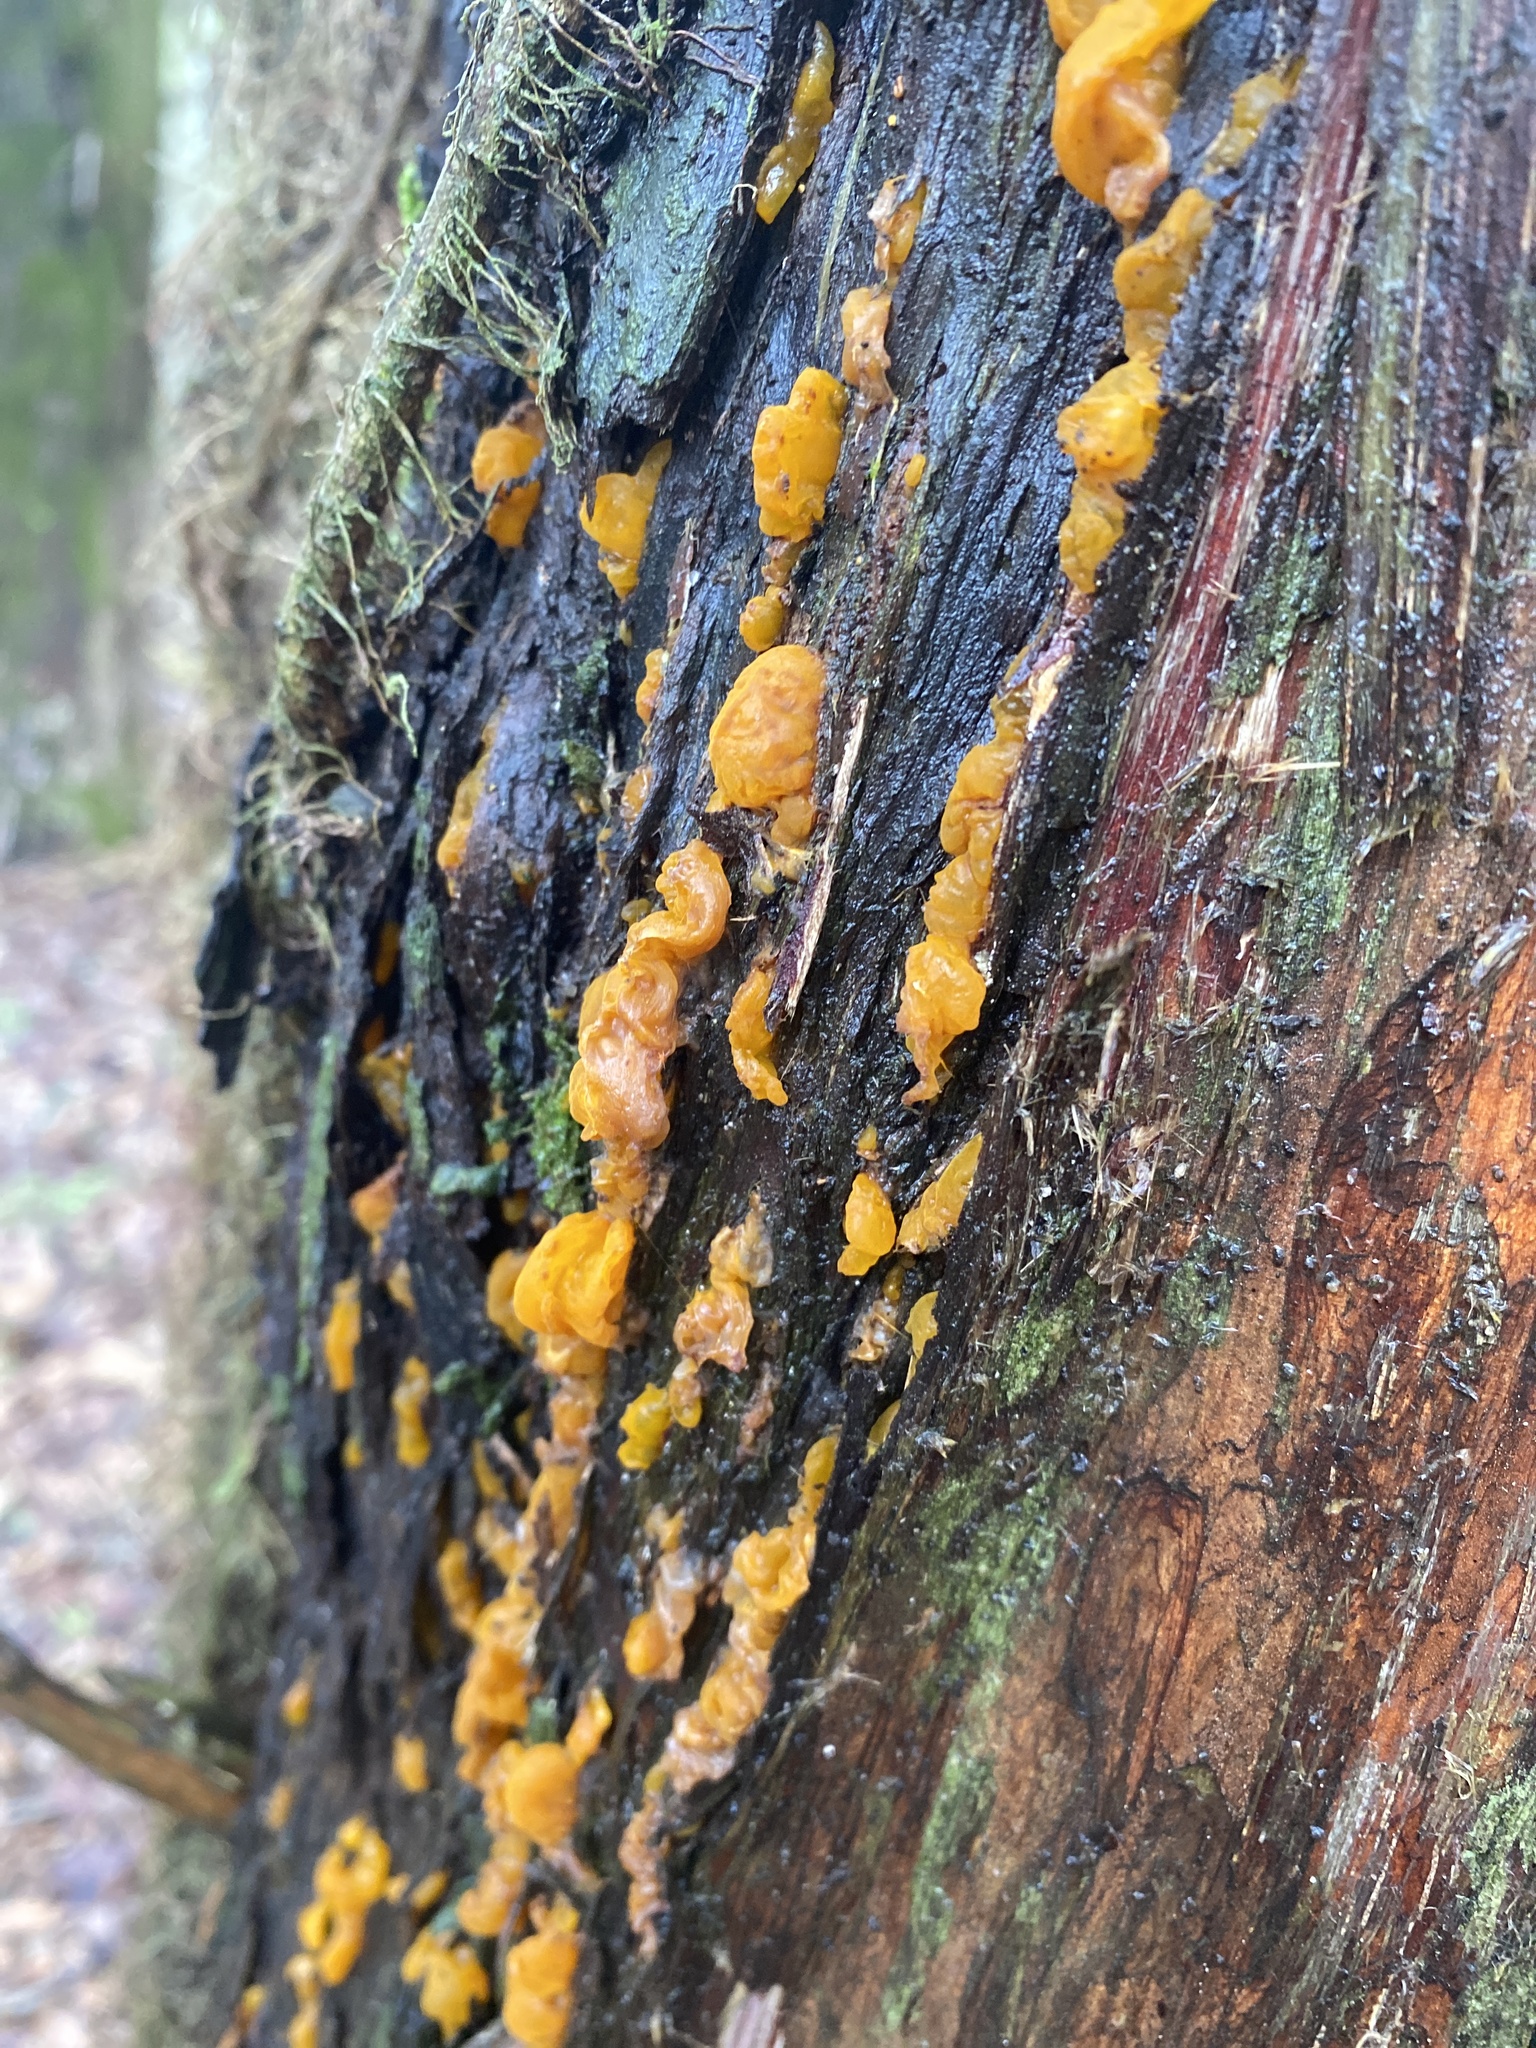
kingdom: Fungi
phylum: Basidiomycota
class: Pucciniomycetes
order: Pucciniales
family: Gymnosporangiaceae
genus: Gymnosporangium
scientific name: Gymnosporangium clavipes
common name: Quince rust
